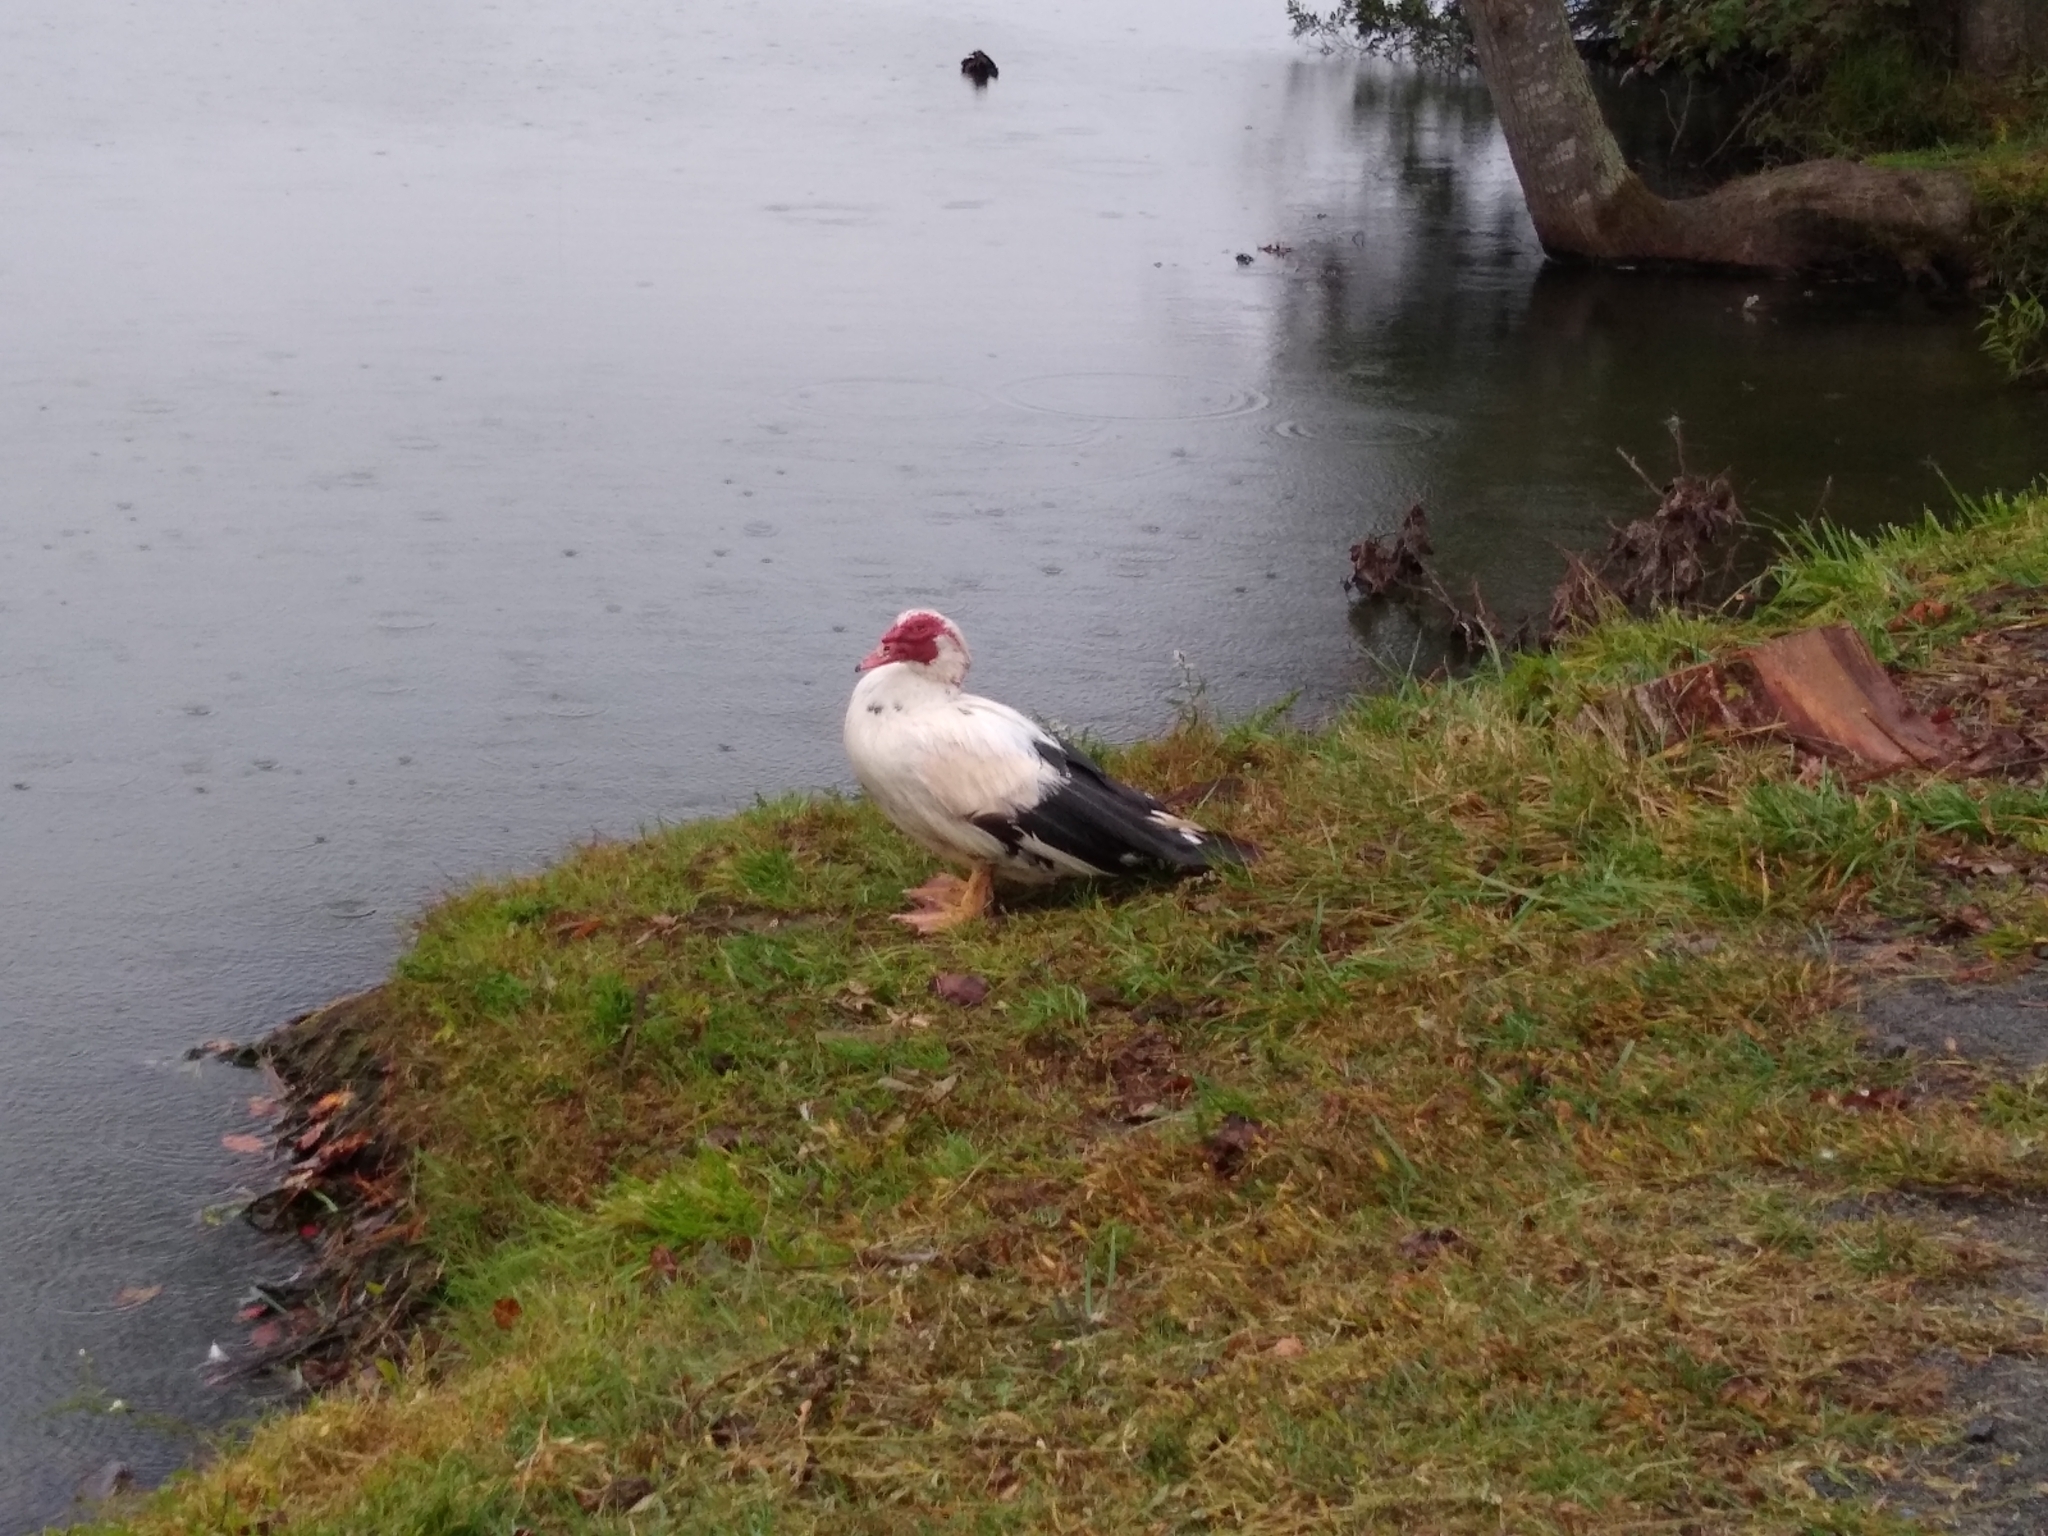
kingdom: Animalia
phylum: Chordata
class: Aves
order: Anseriformes
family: Anatidae
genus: Cairina
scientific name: Cairina moschata
